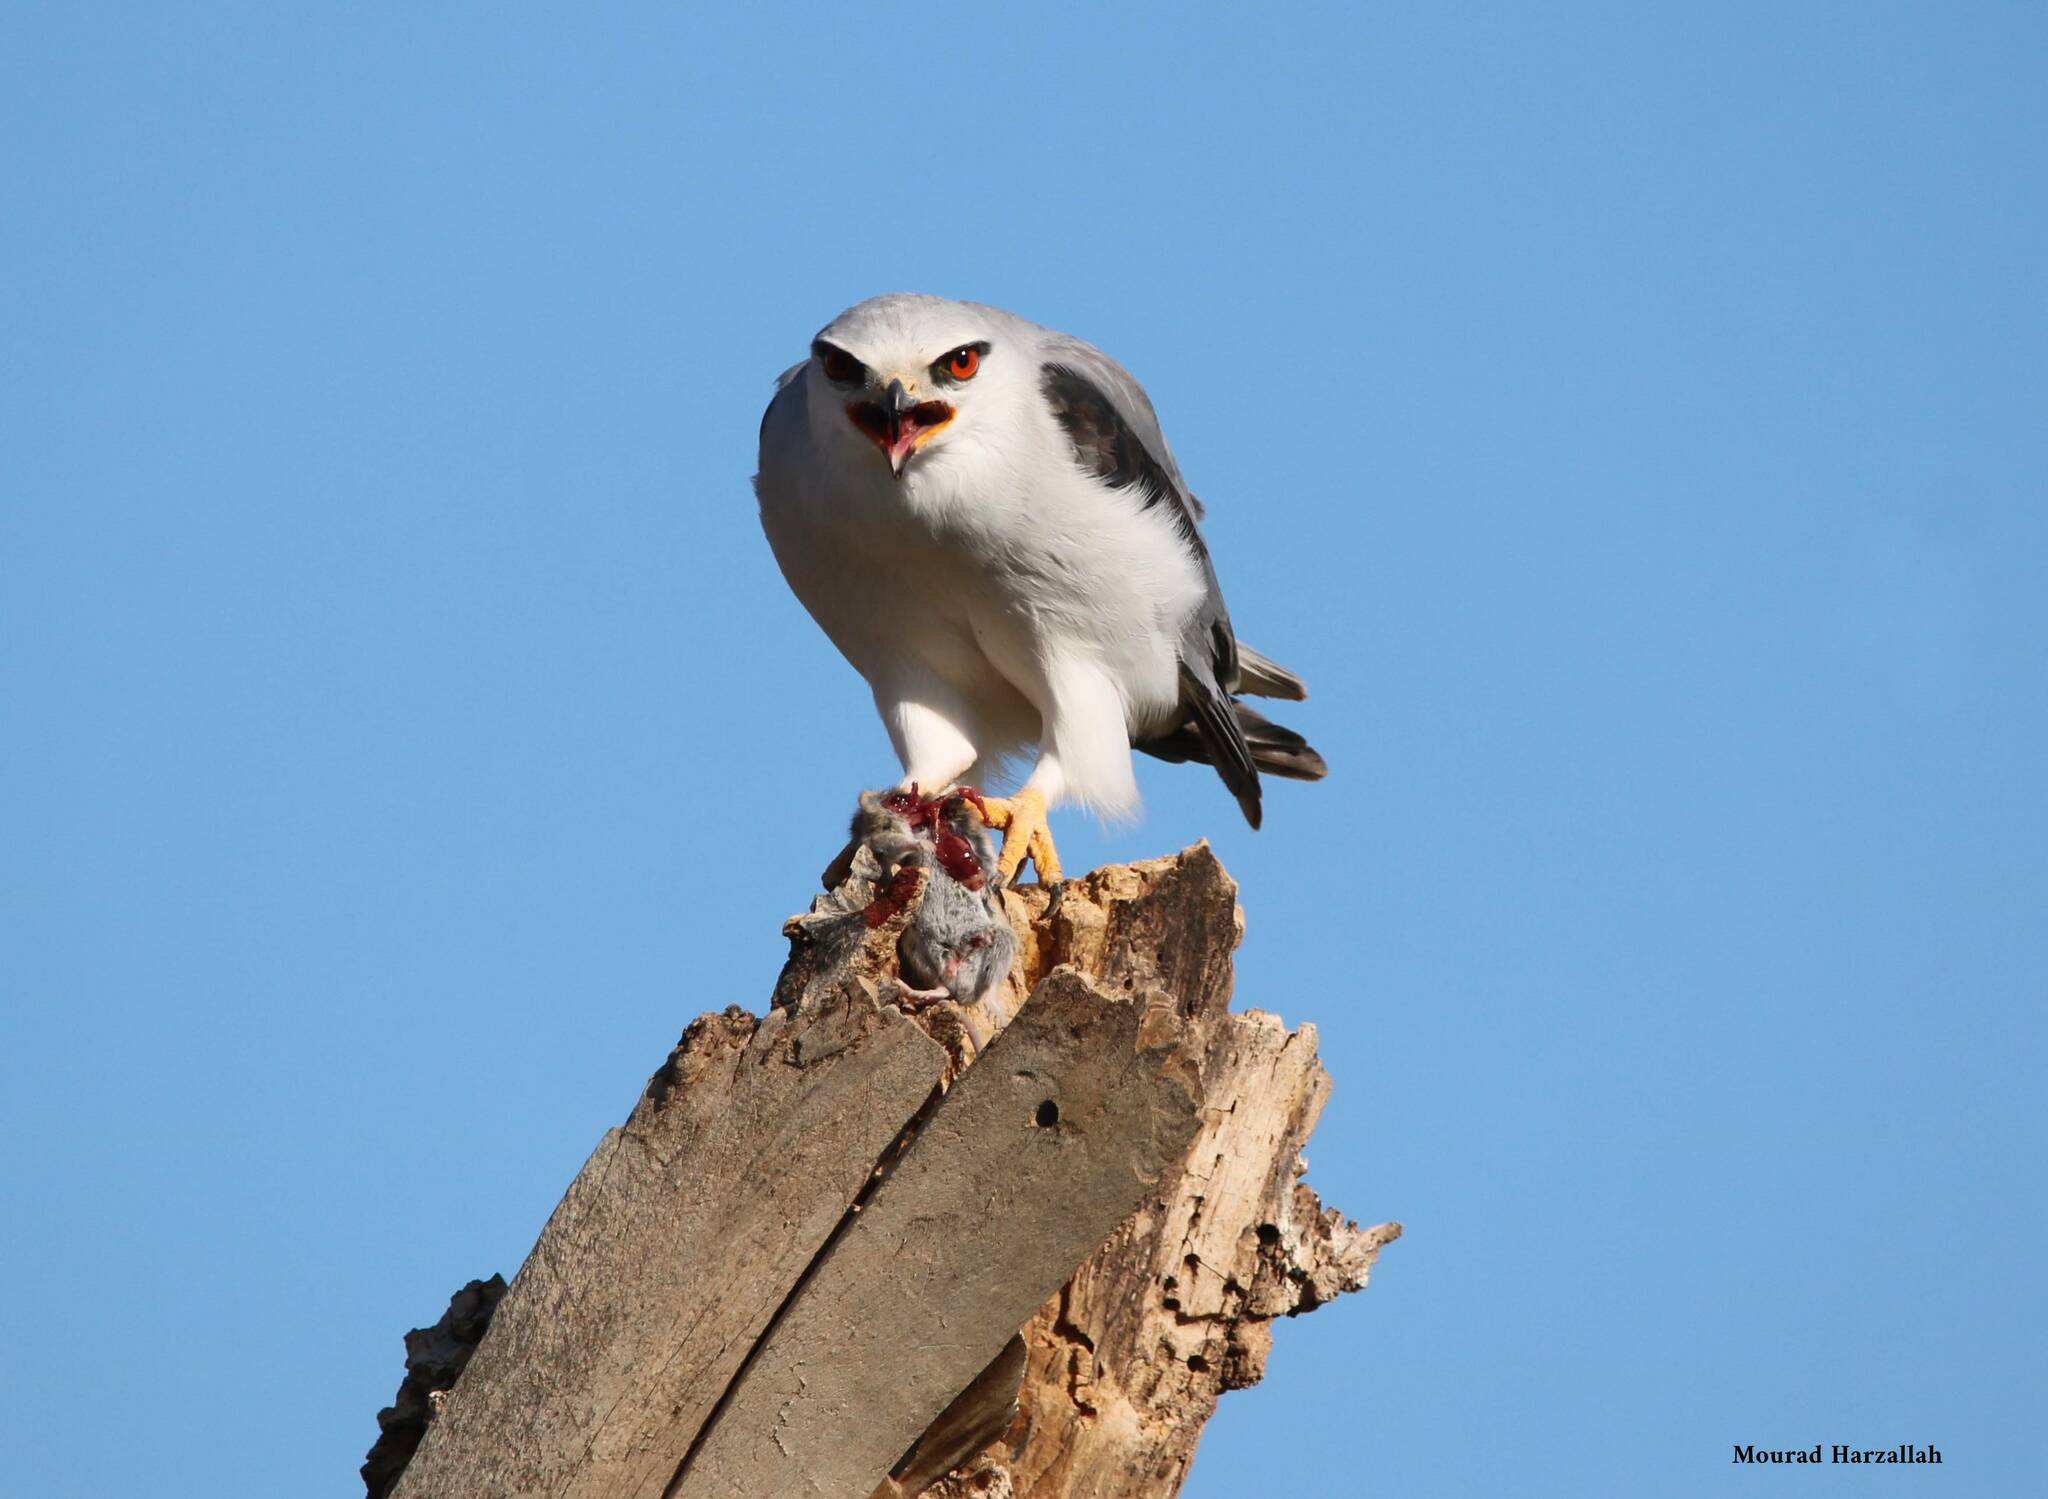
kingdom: Animalia
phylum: Chordata
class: Aves
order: Accipitriformes
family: Accipitridae
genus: Elanus
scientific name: Elanus caeruleus
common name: Black-winged kite
